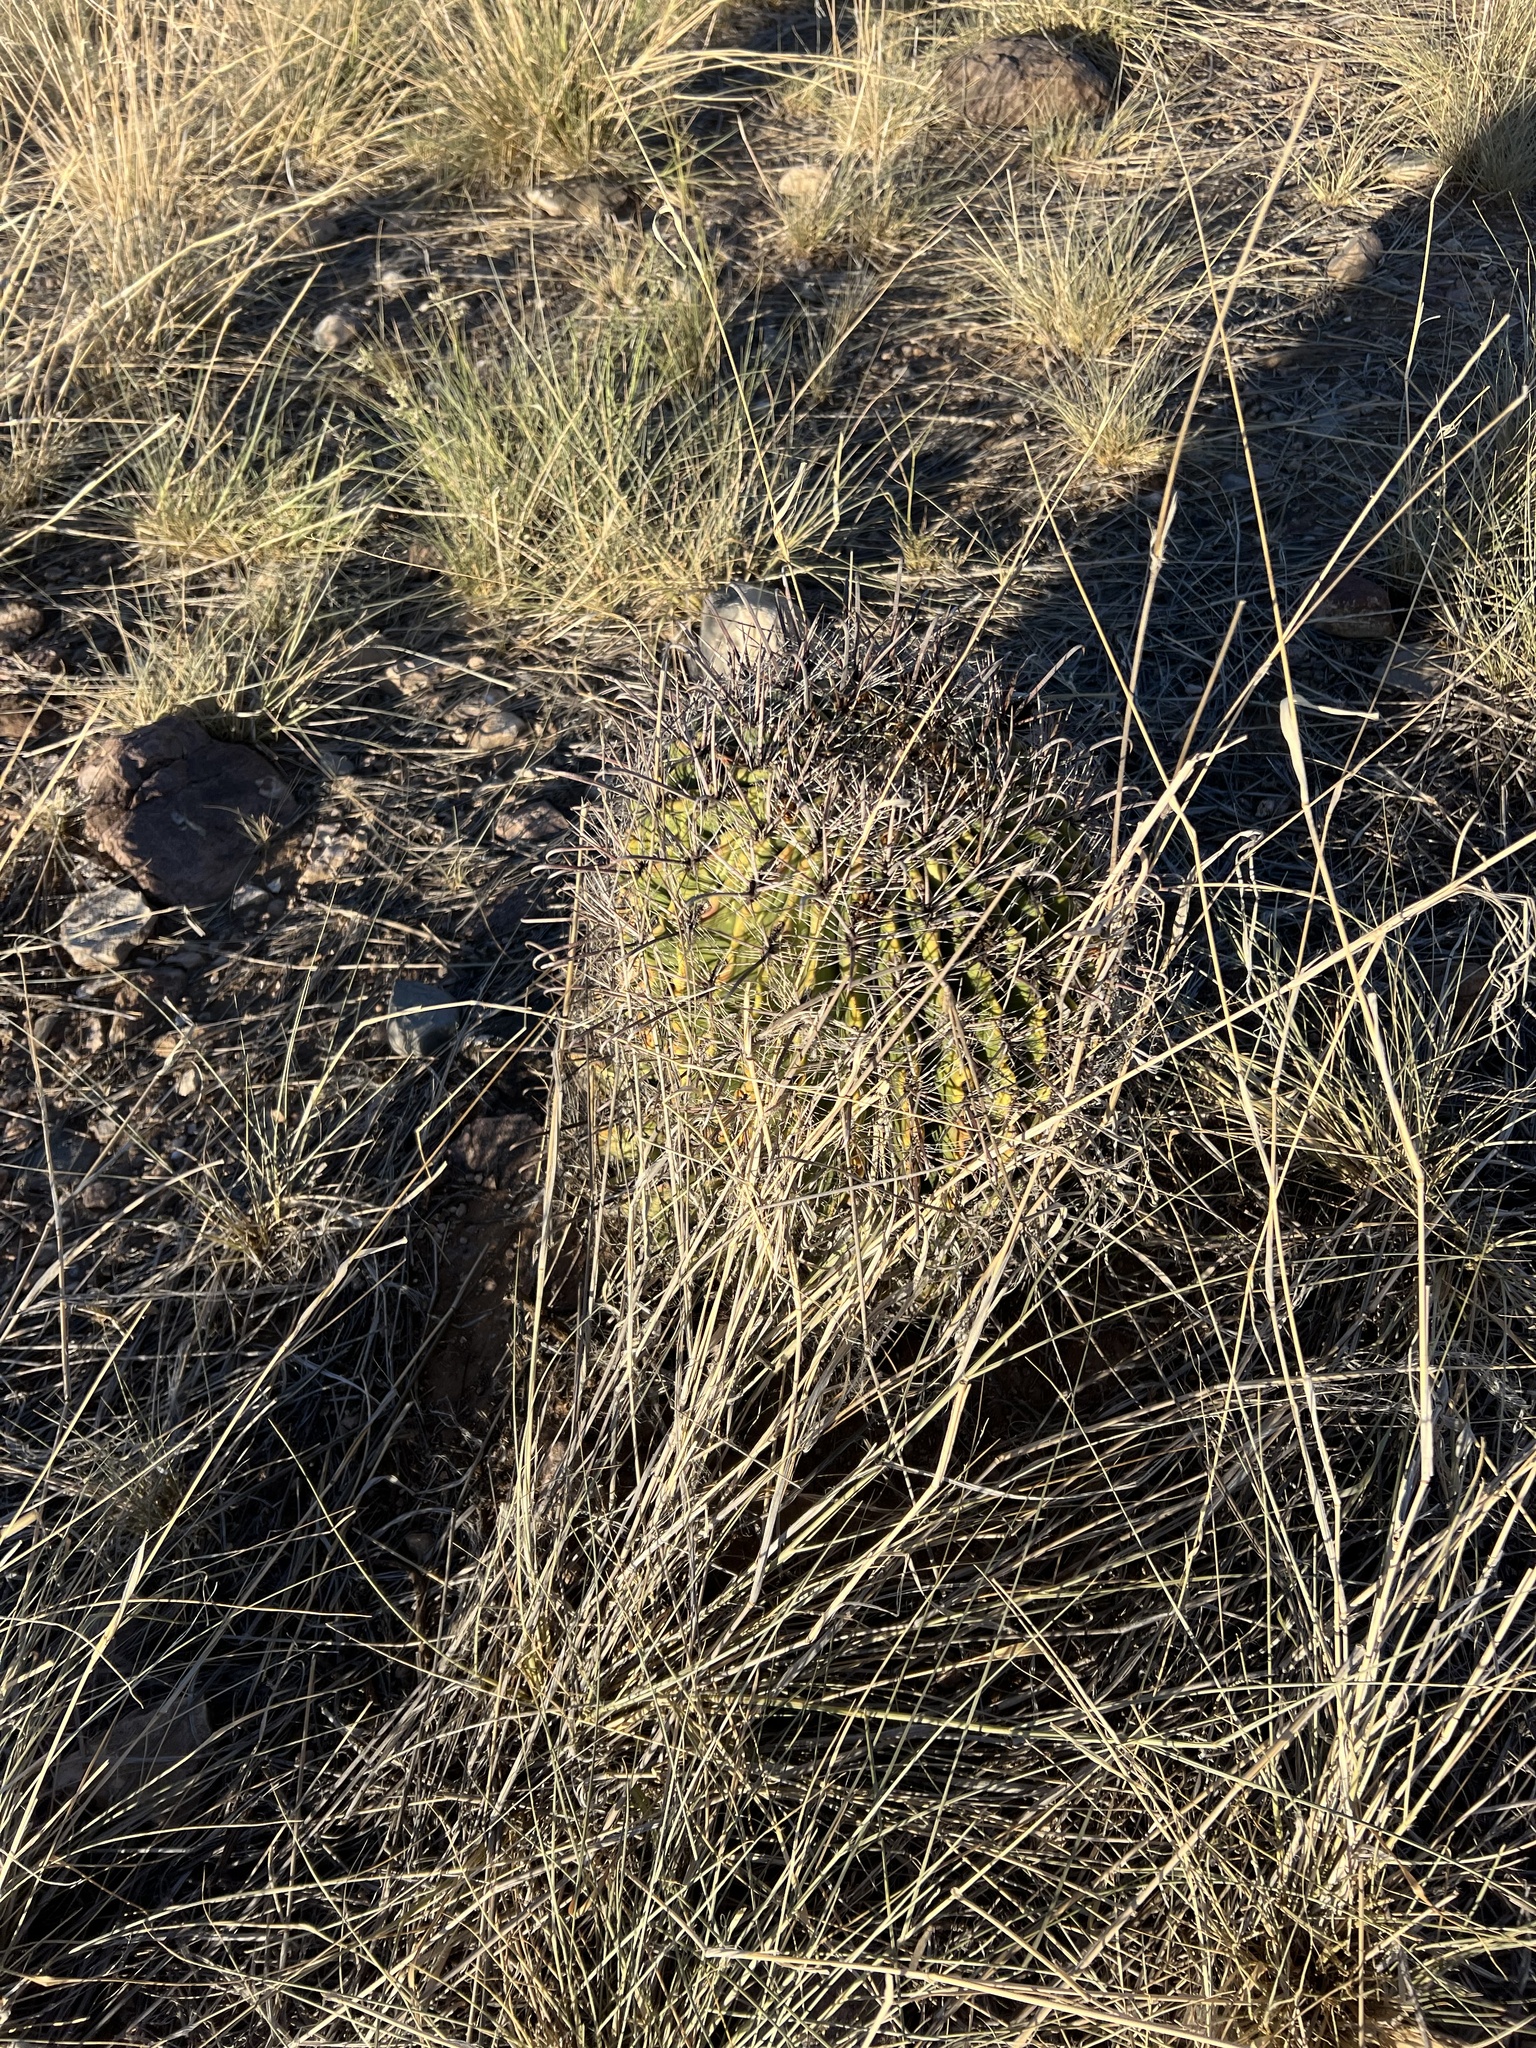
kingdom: Plantae
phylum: Tracheophyta
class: Magnoliopsida
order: Caryophyllales
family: Cactaceae
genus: Ferocactus
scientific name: Ferocactus wislizeni
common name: Candy barrel cactus
